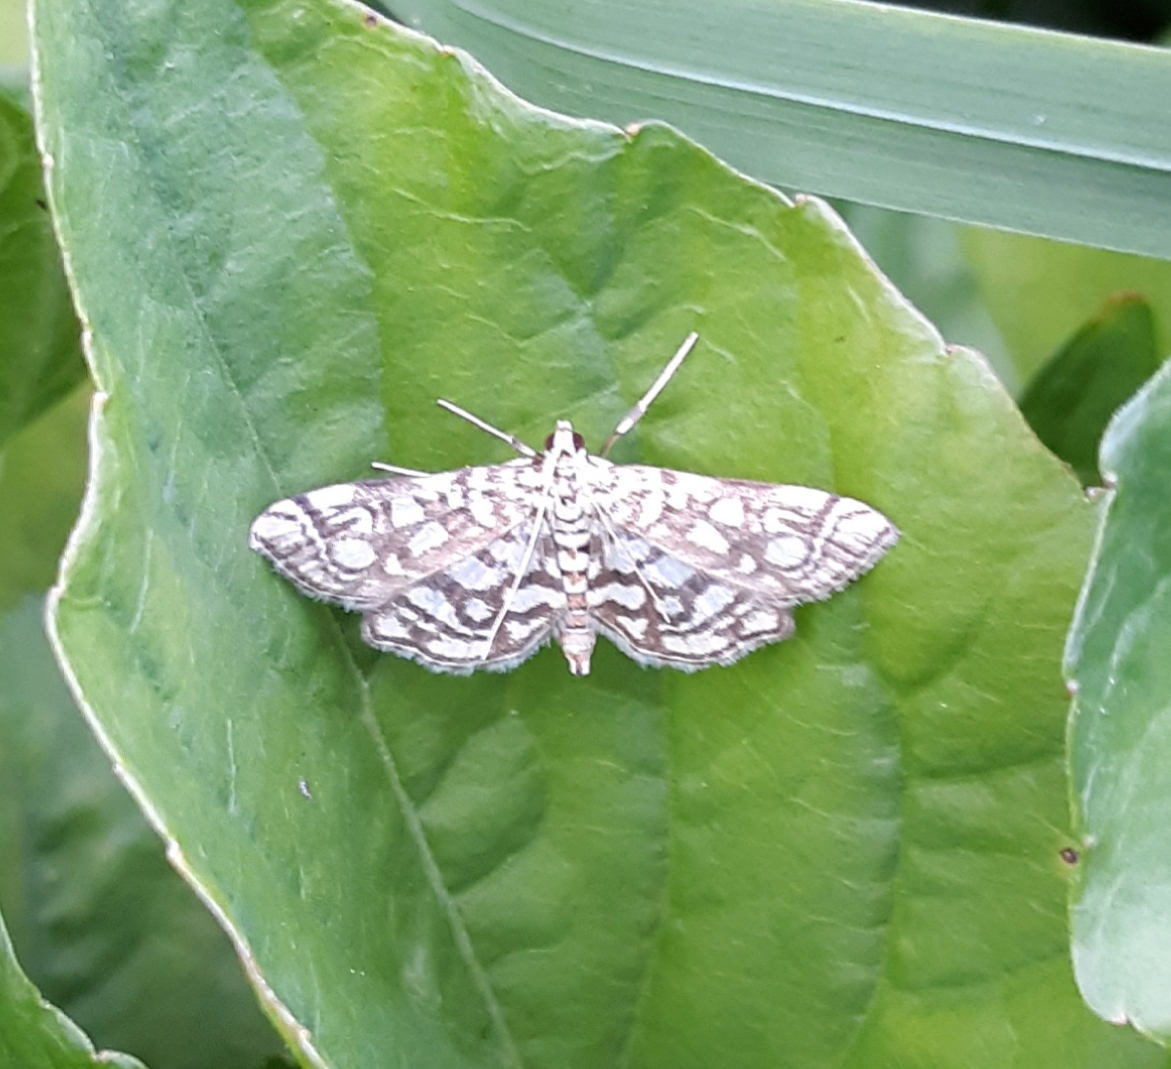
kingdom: Animalia
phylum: Arthropoda
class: Insecta
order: Lepidoptera
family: Crambidae
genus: Lygropia
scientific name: Lygropia rivulalis
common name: Bog lygropia moth
